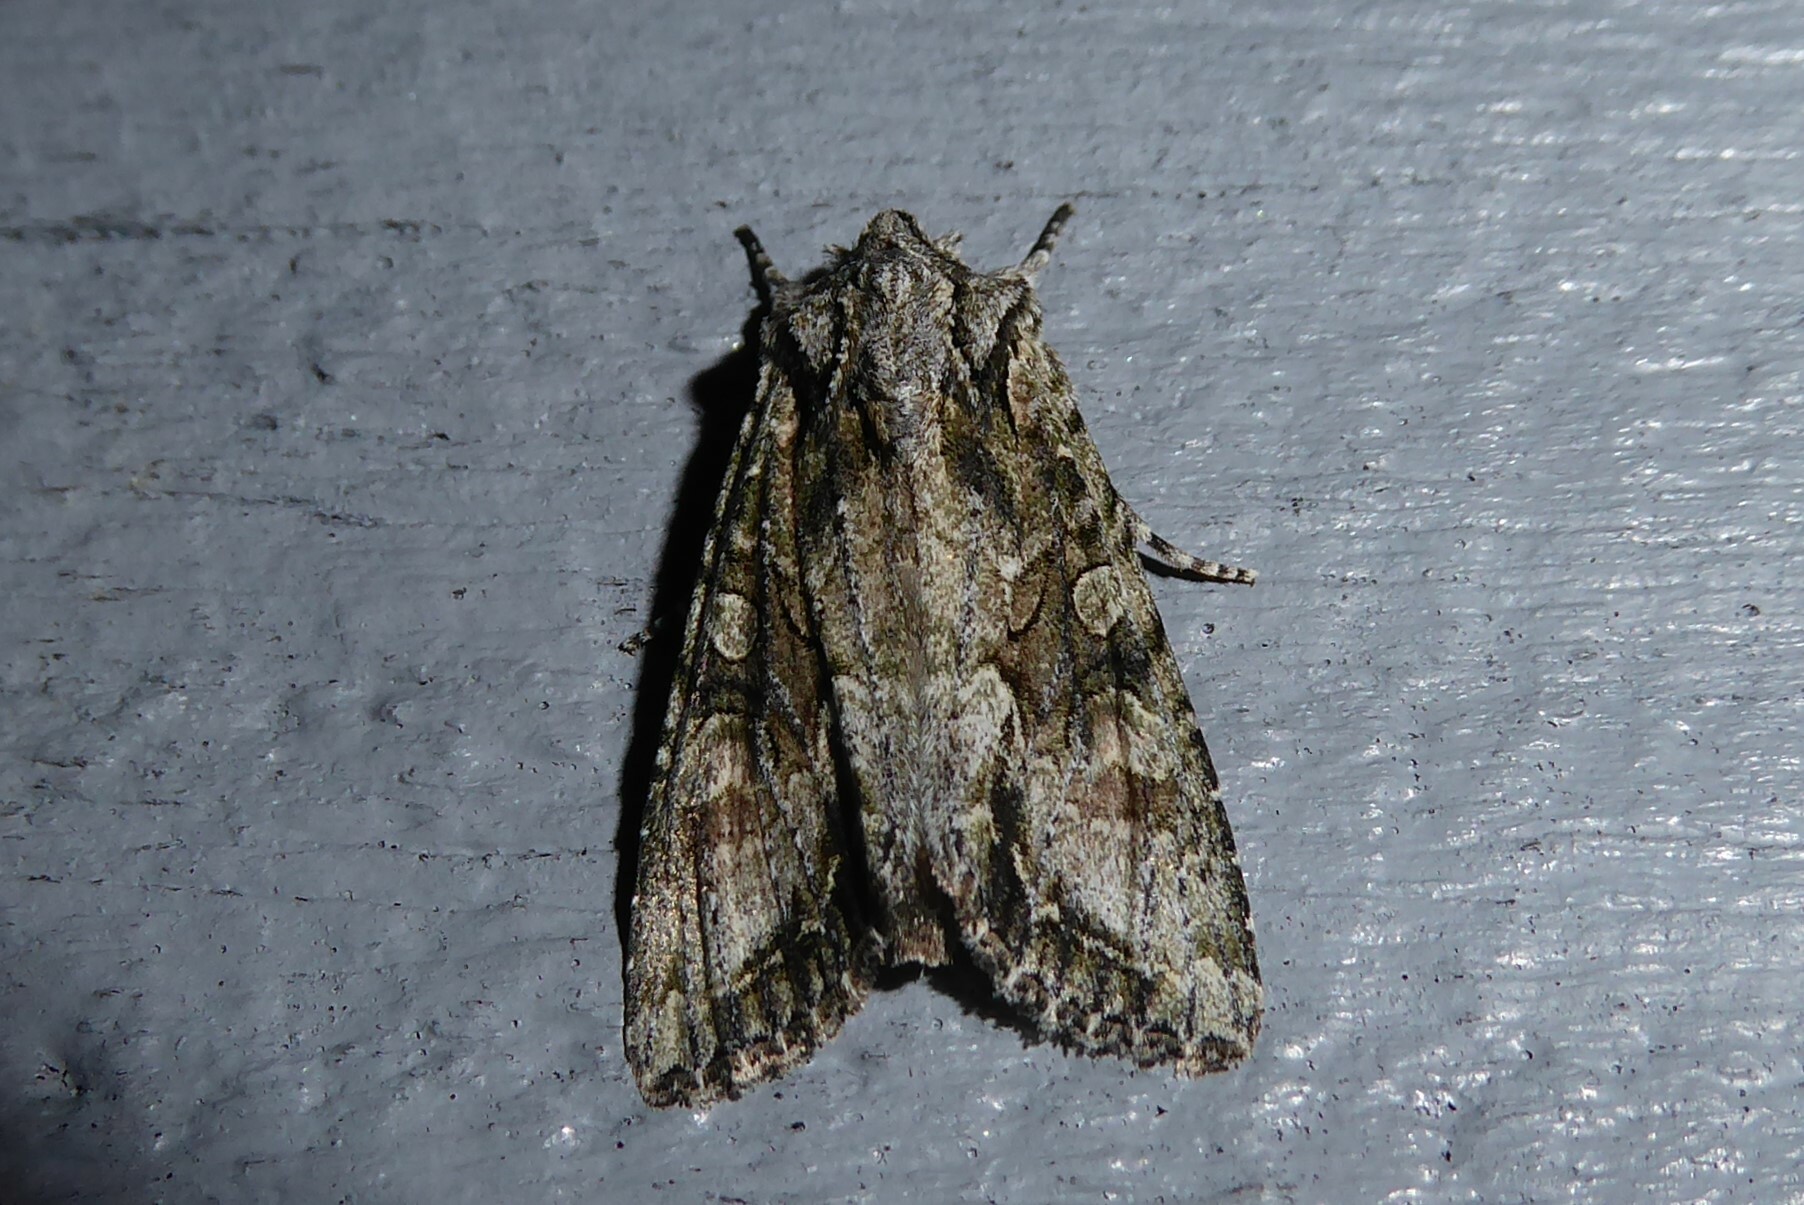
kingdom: Animalia
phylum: Arthropoda
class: Insecta
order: Lepidoptera
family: Noctuidae
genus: Ichneutica
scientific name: Ichneutica mutans
